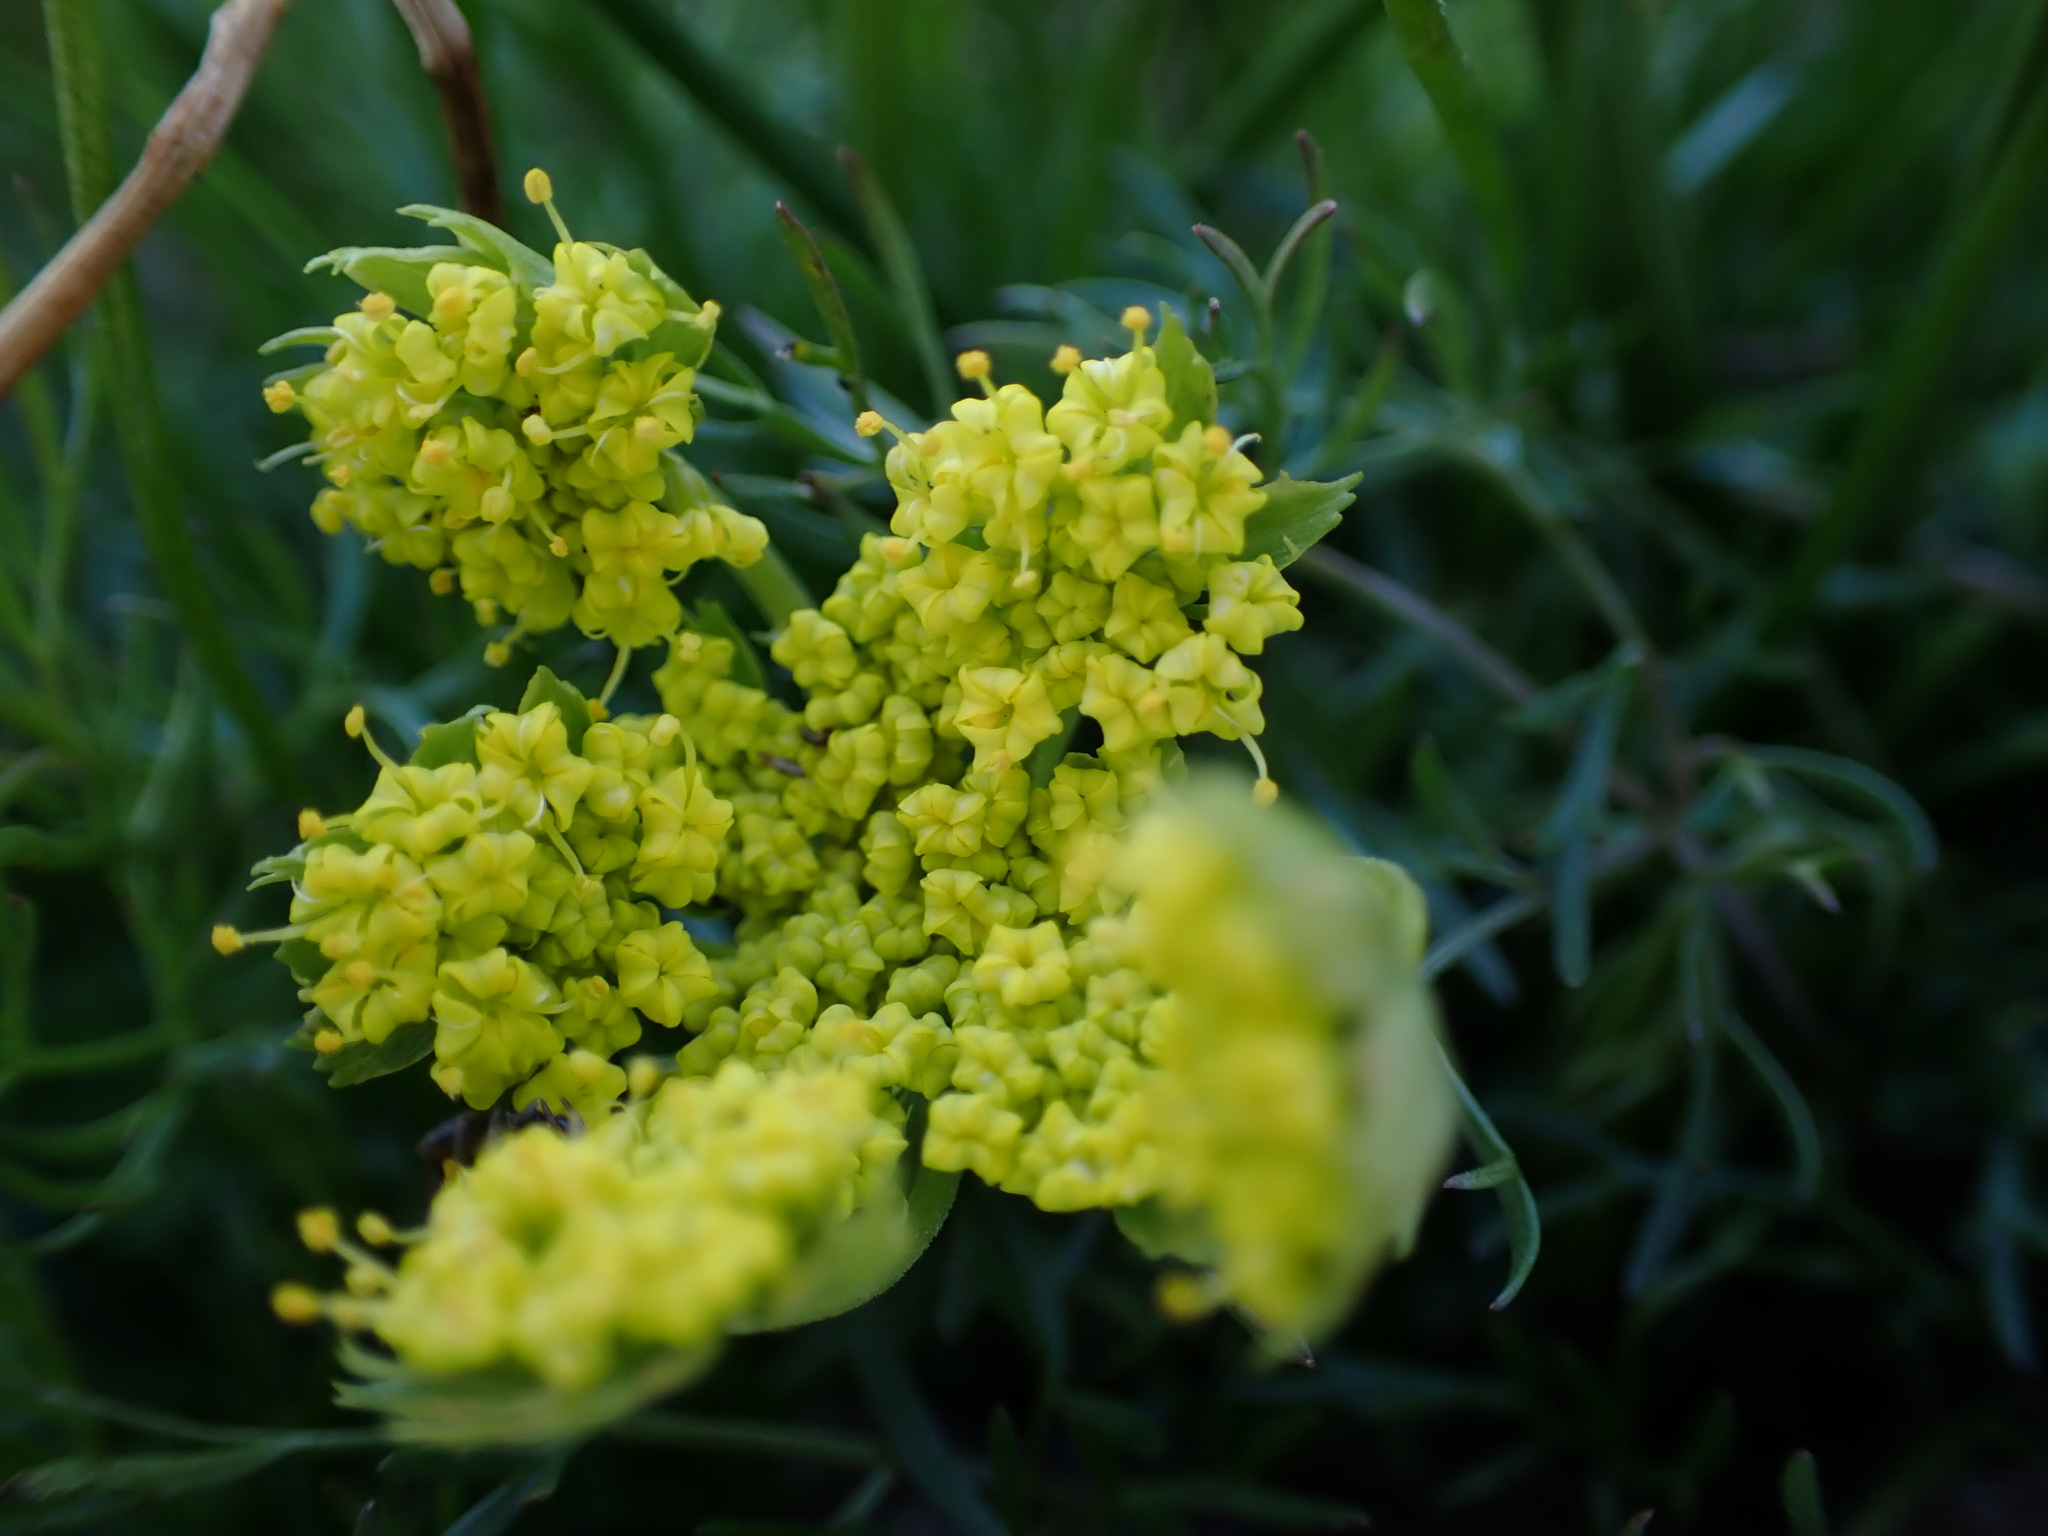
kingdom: Plantae
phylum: Tracheophyta
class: Magnoliopsida
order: Apiales
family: Apiaceae
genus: Lomatium
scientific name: Lomatium utriculatum
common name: Fine-leaf desert-parsley
